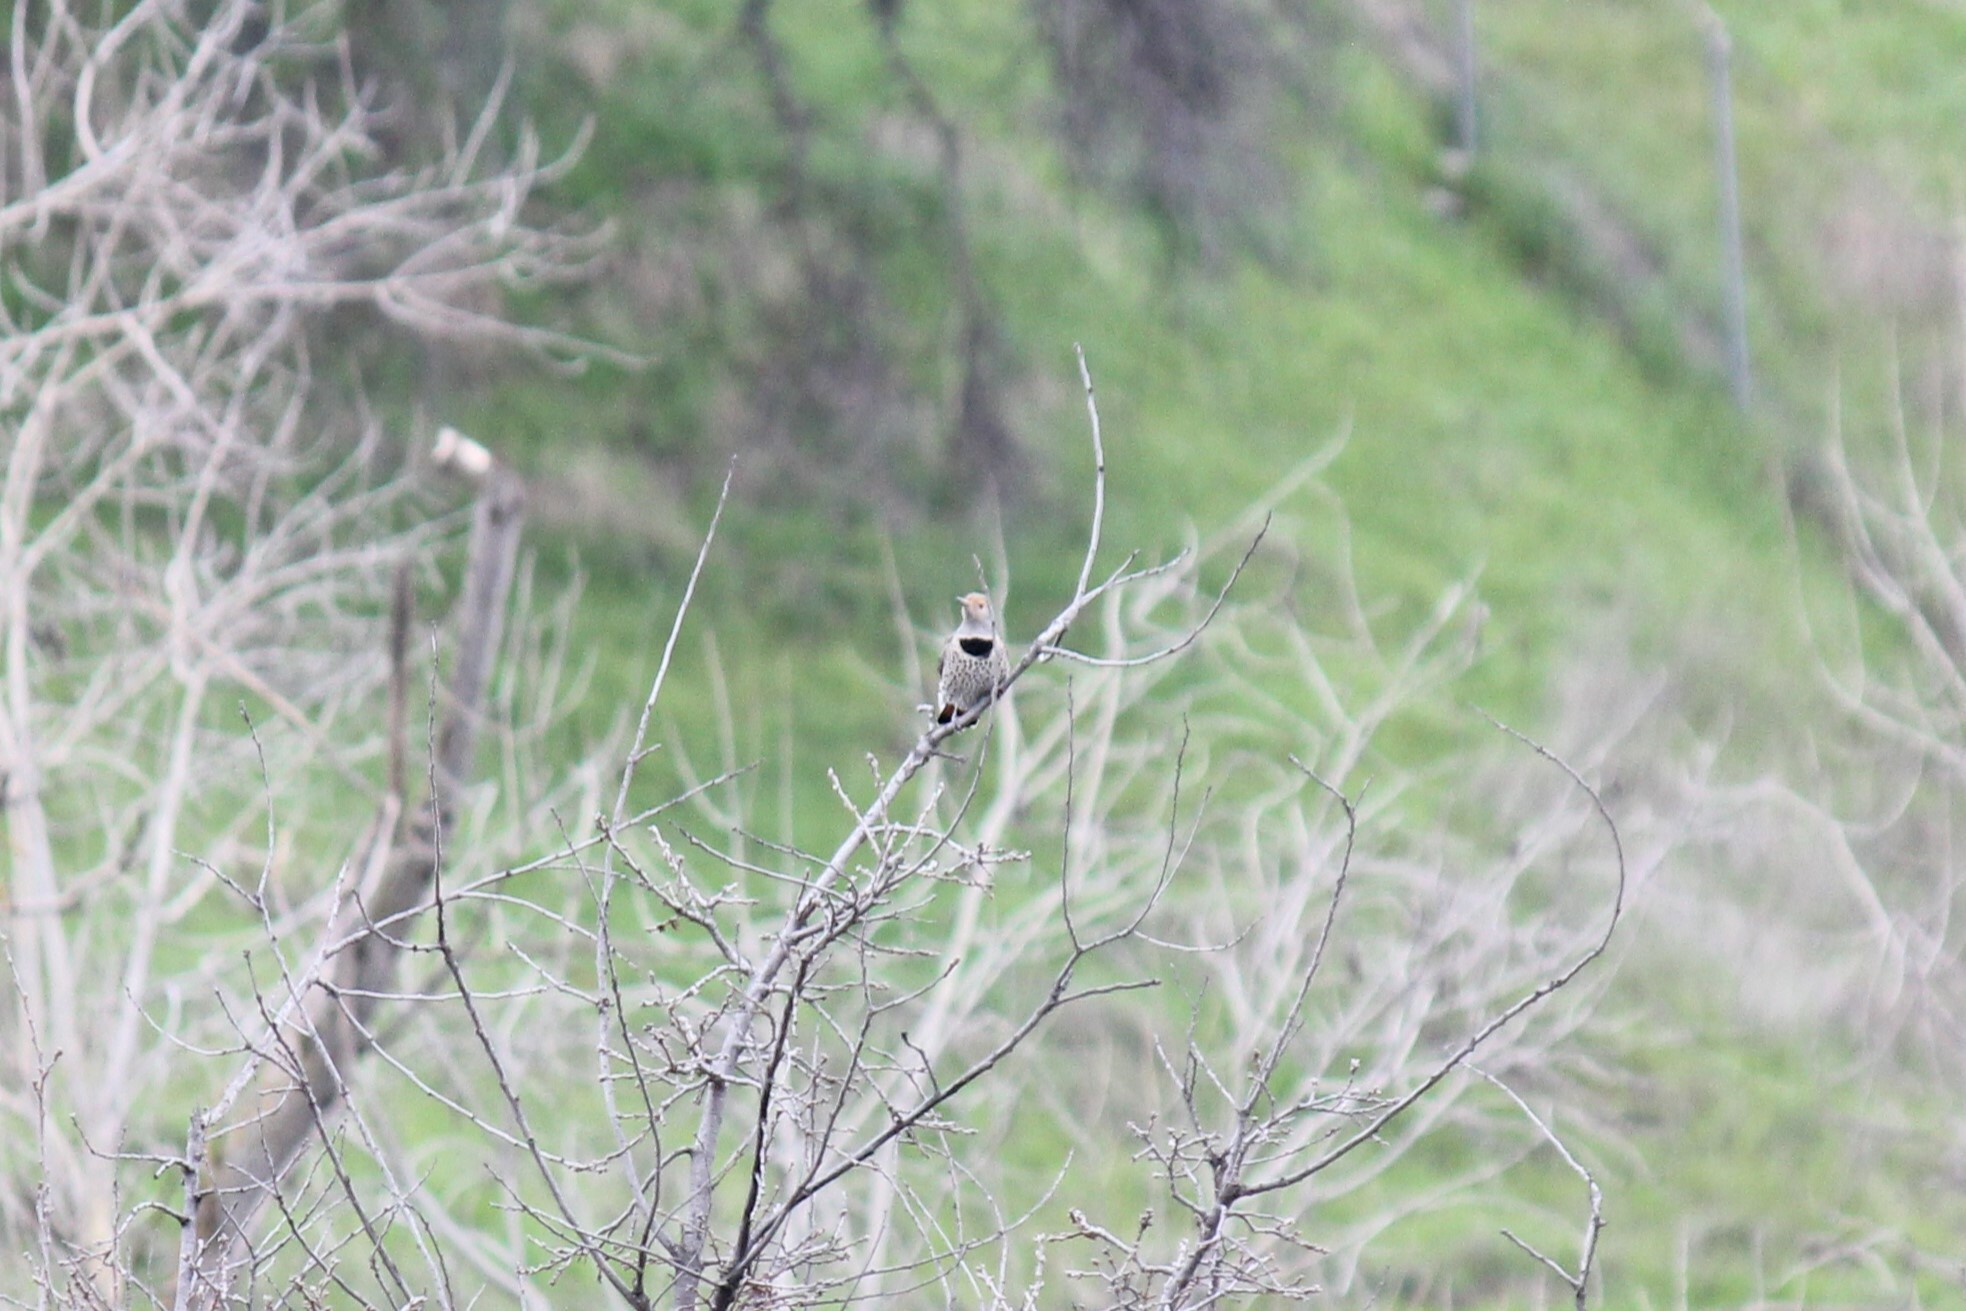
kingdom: Animalia
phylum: Chordata
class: Aves
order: Piciformes
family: Picidae
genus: Colaptes
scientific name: Colaptes auratus
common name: Northern flicker
